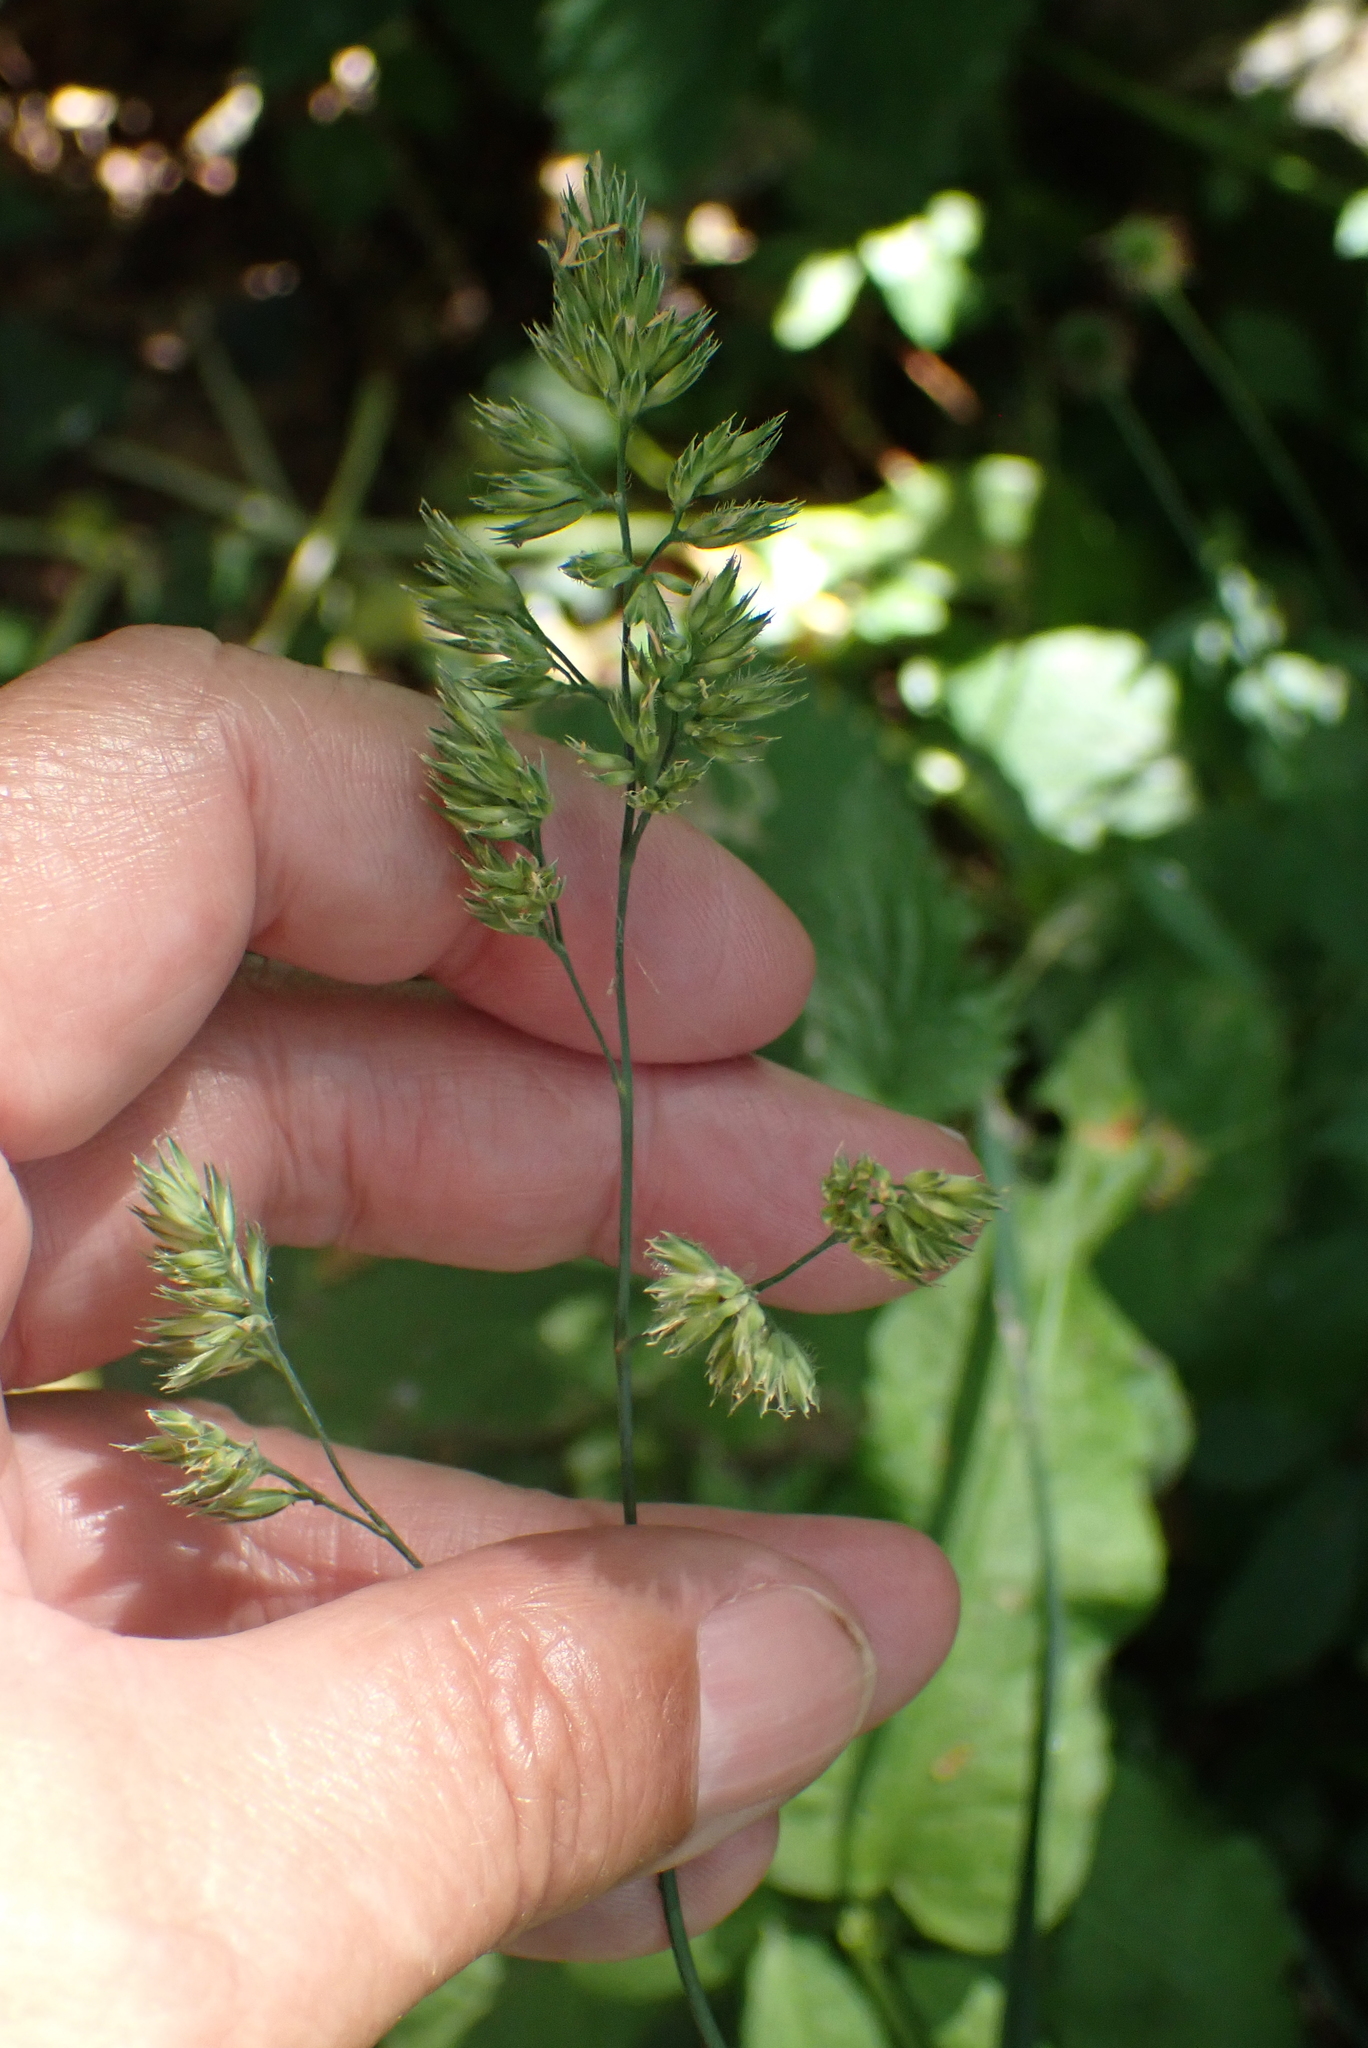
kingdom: Plantae
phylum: Tracheophyta
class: Liliopsida
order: Poales
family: Poaceae
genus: Dactylis
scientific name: Dactylis glomerata
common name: Orchardgrass
